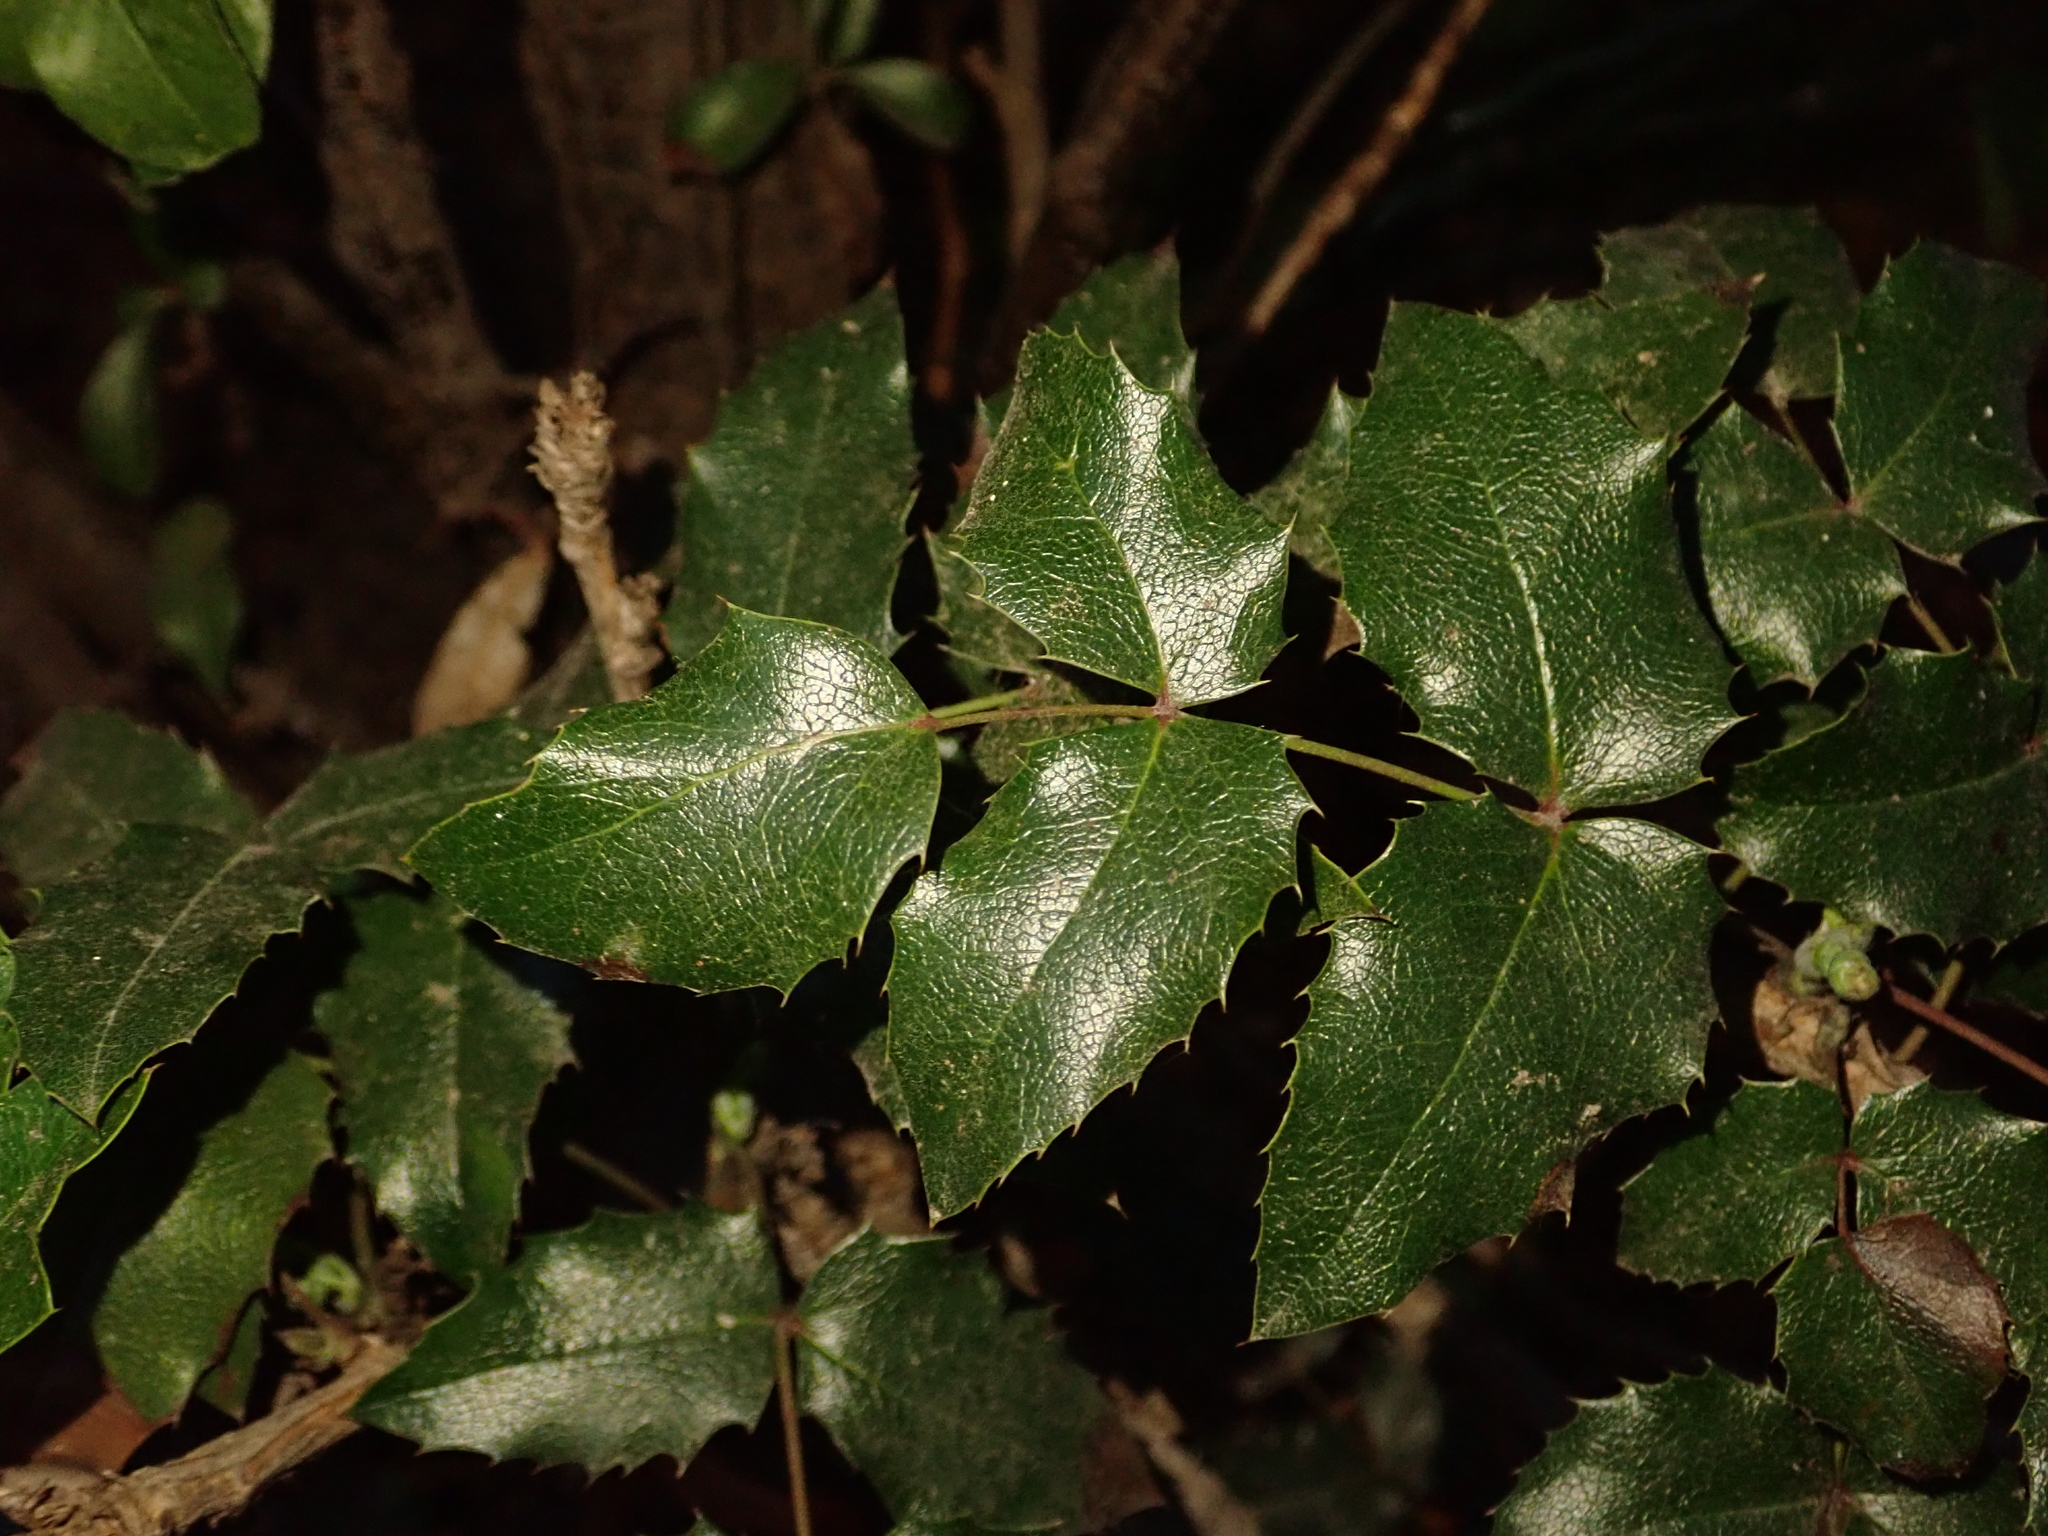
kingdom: Plantae
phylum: Tracheophyta
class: Magnoliopsida
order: Ranunculales
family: Berberidaceae
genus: Mahonia
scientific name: Mahonia aquifolium
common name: Oregon-grape
